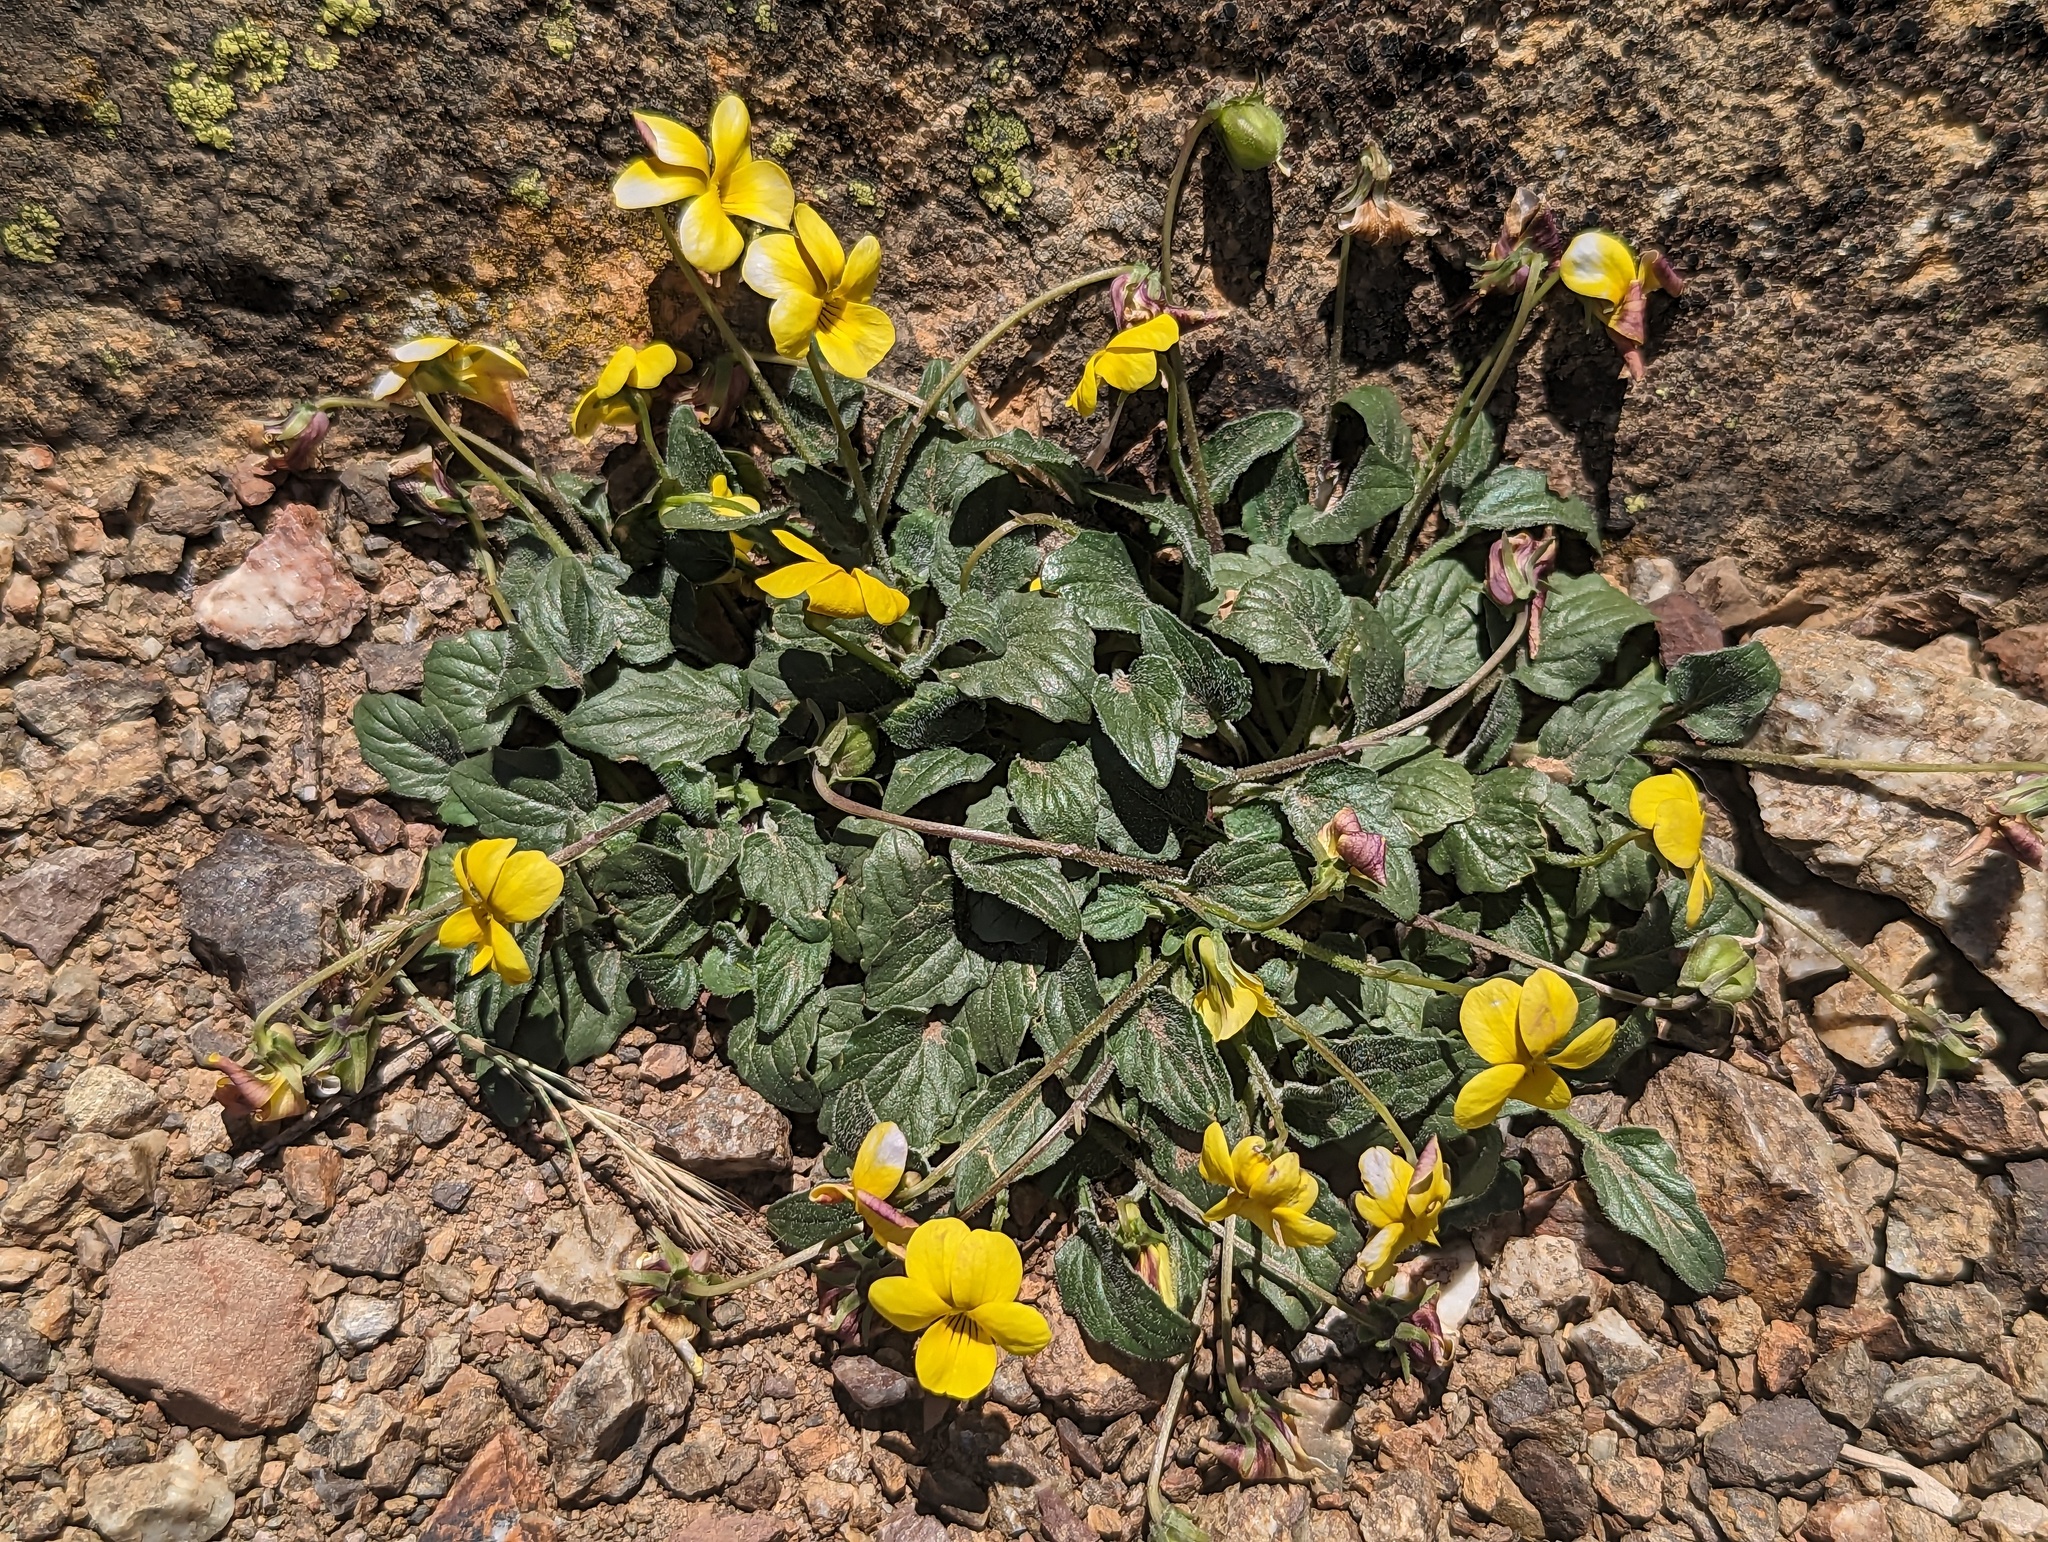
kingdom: Plantae
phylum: Tracheophyta
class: Magnoliopsida
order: Malpighiales
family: Violaceae
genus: Viola
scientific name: Viola purpurea
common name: Pine violet
